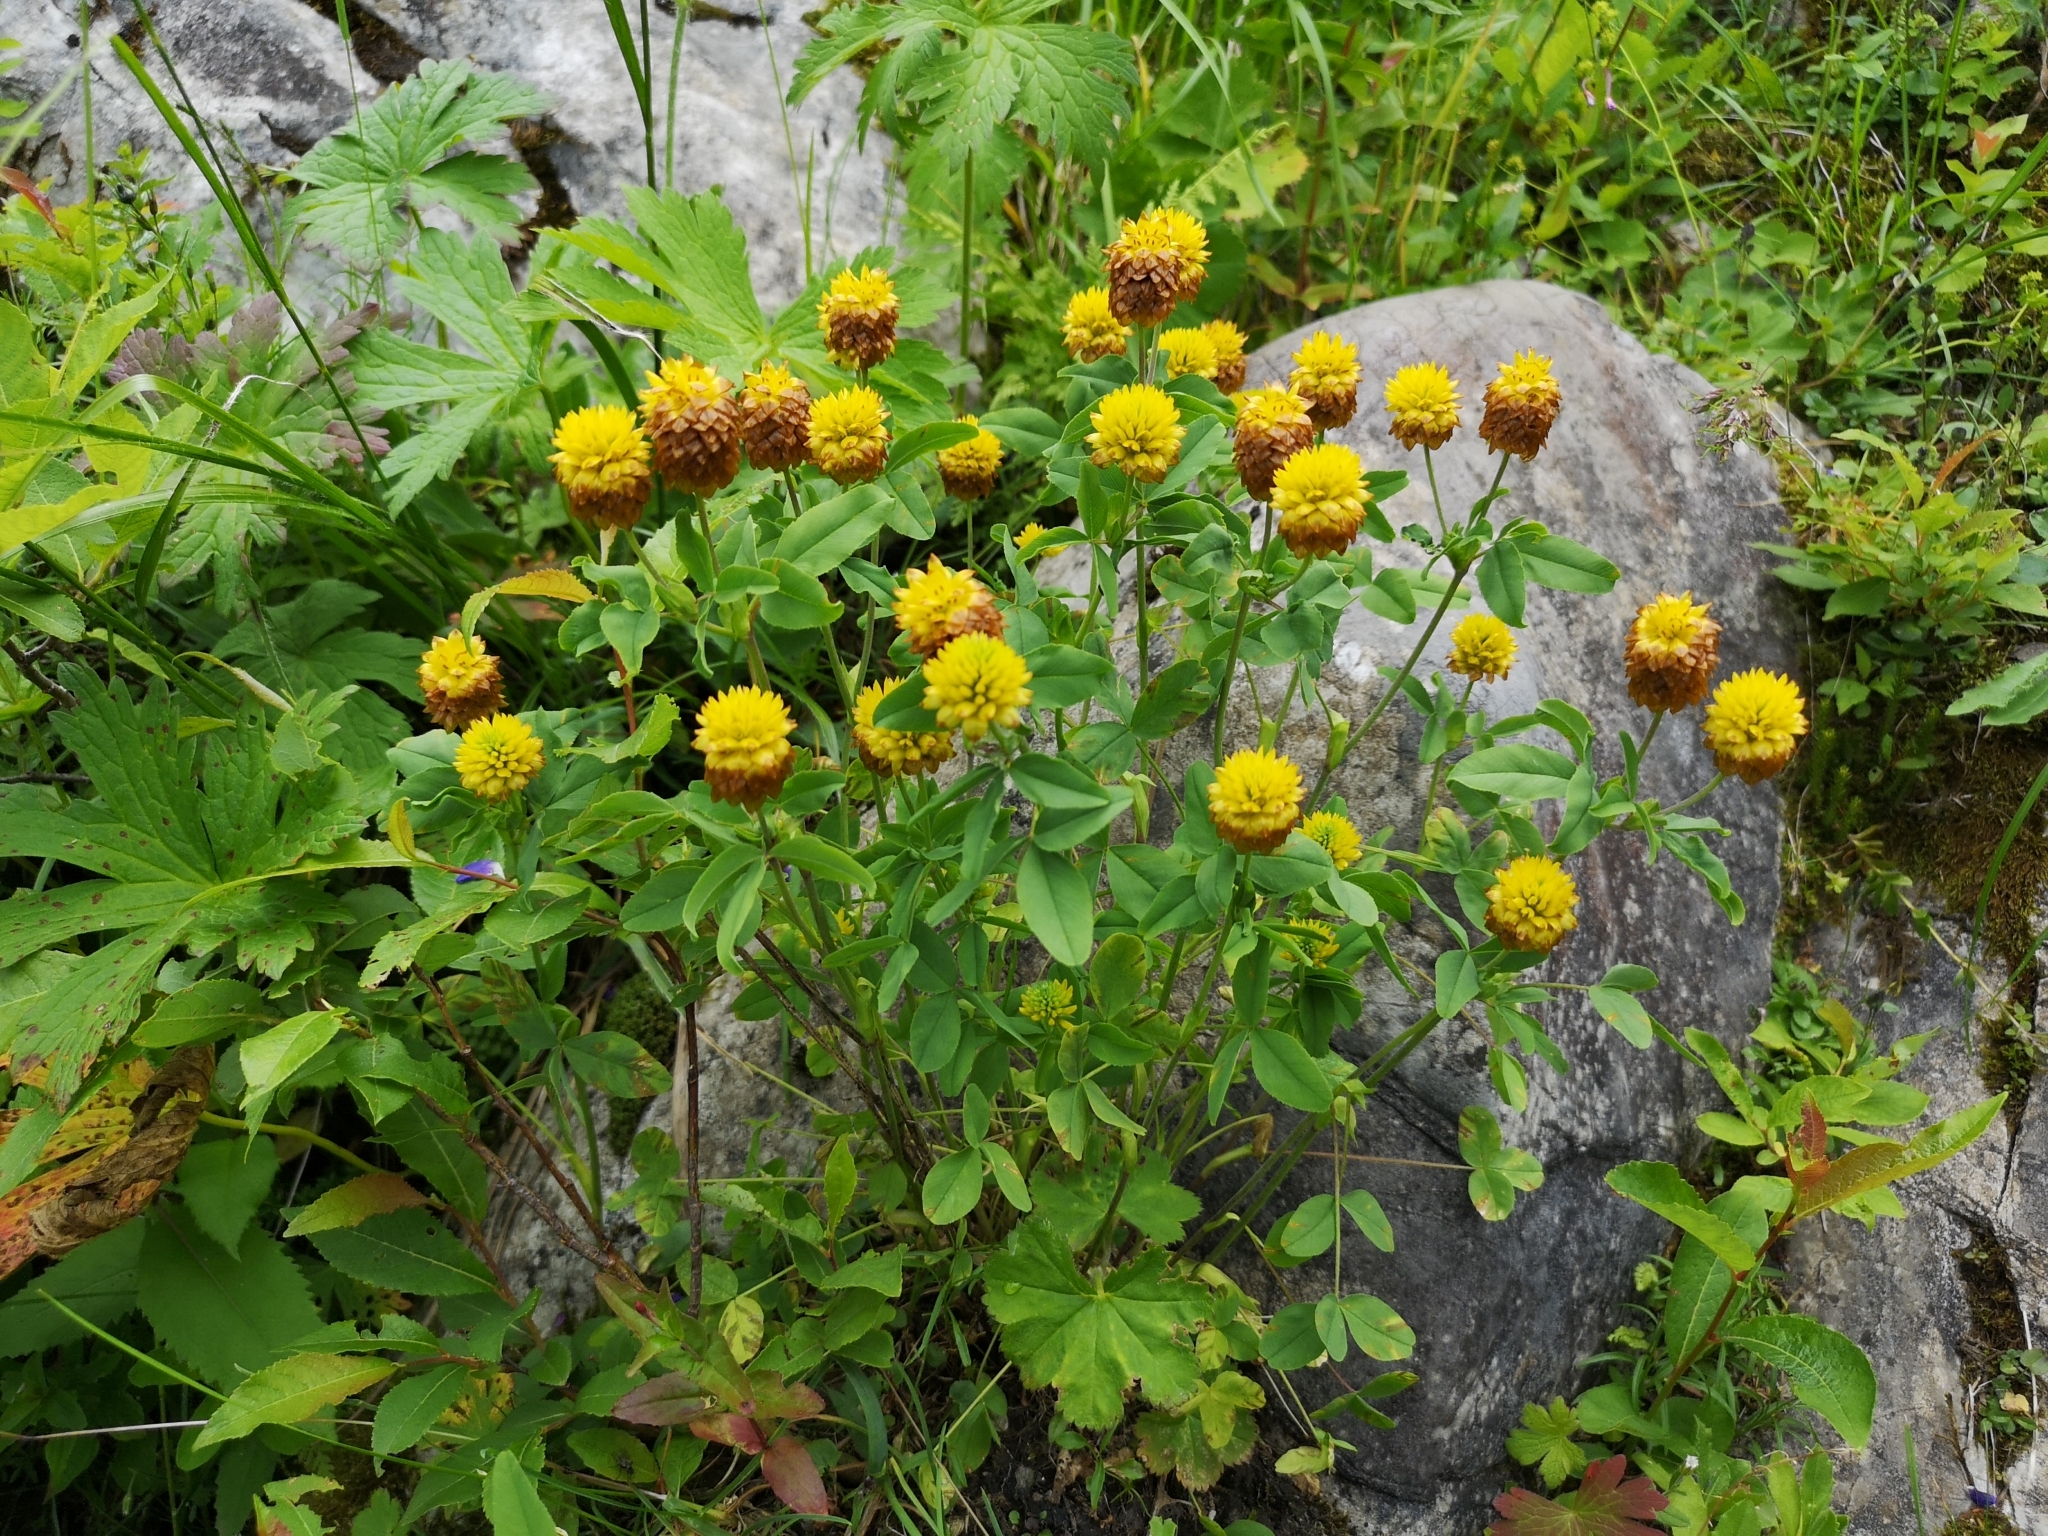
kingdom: Plantae
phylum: Tracheophyta
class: Magnoliopsida
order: Fabales
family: Fabaceae
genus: Trifolium
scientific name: Trifolium badium
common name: Brown clover
